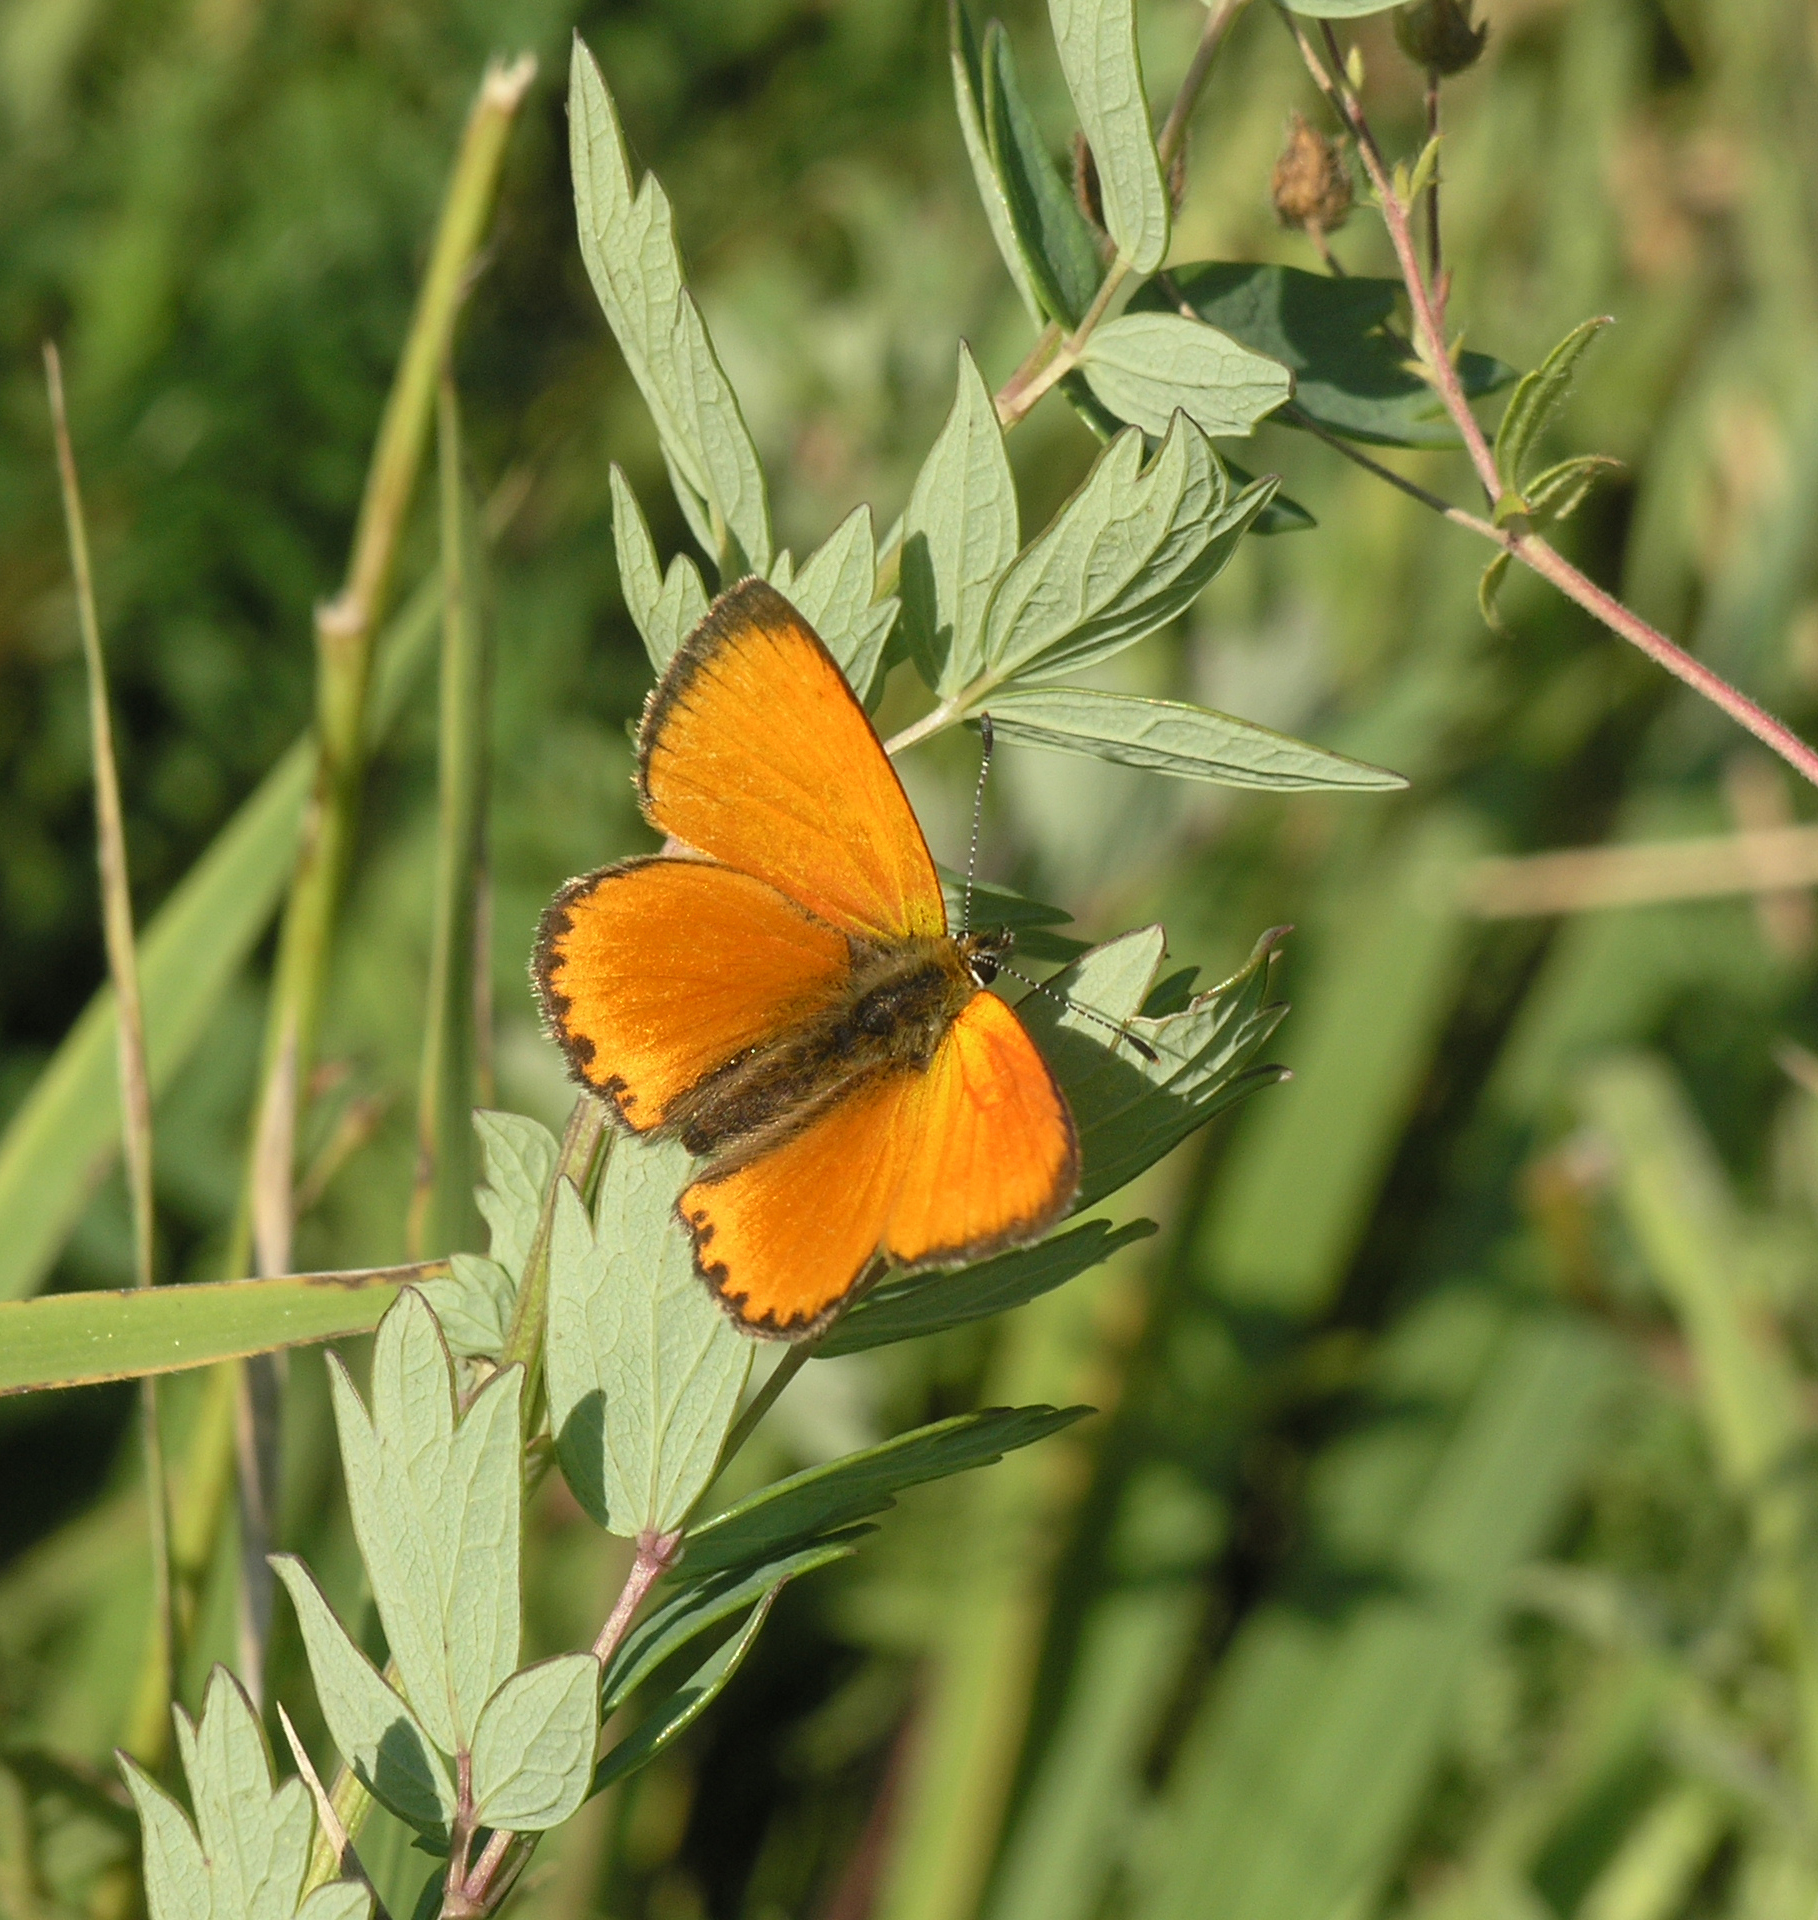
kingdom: Animalia
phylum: Arthropoda
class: Insecta
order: Lepidoptera
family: Lycaenidae
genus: Lycaena
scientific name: Lycaena virgaureae
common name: Scarce copper
